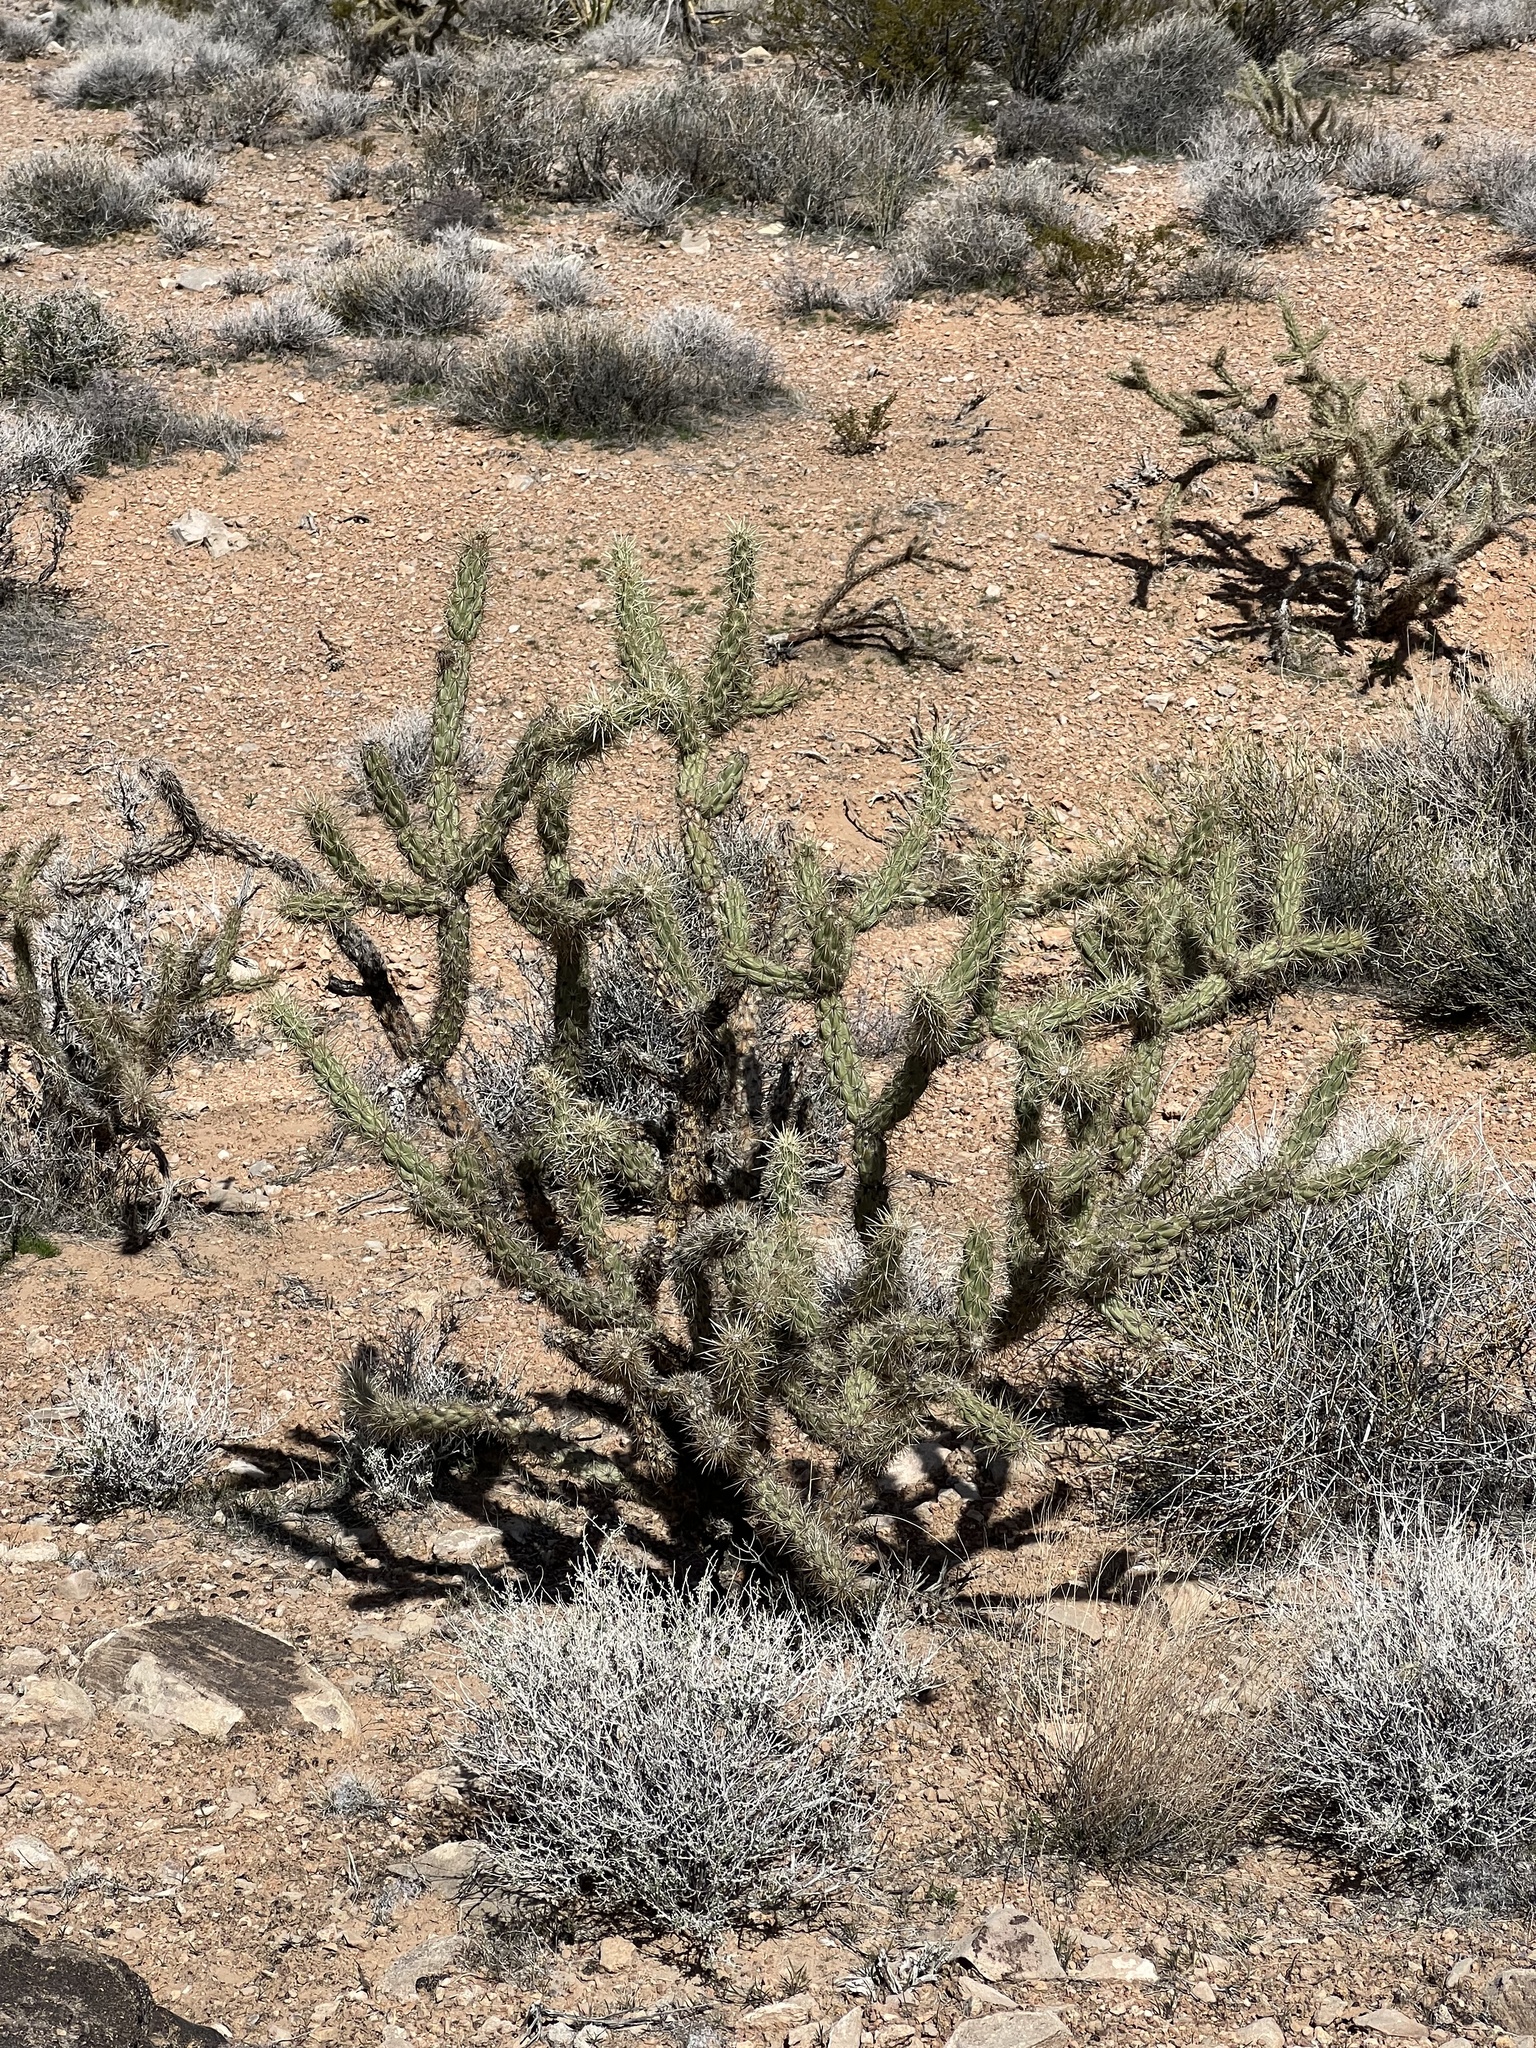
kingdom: Plantae
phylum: Tracheophyta
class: Magnoliopsida
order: Caryophyllales
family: Cactaceae
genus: Cylindropuntia
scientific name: Cylindropuntia acanthocarpa
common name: Buckhorn cholla
